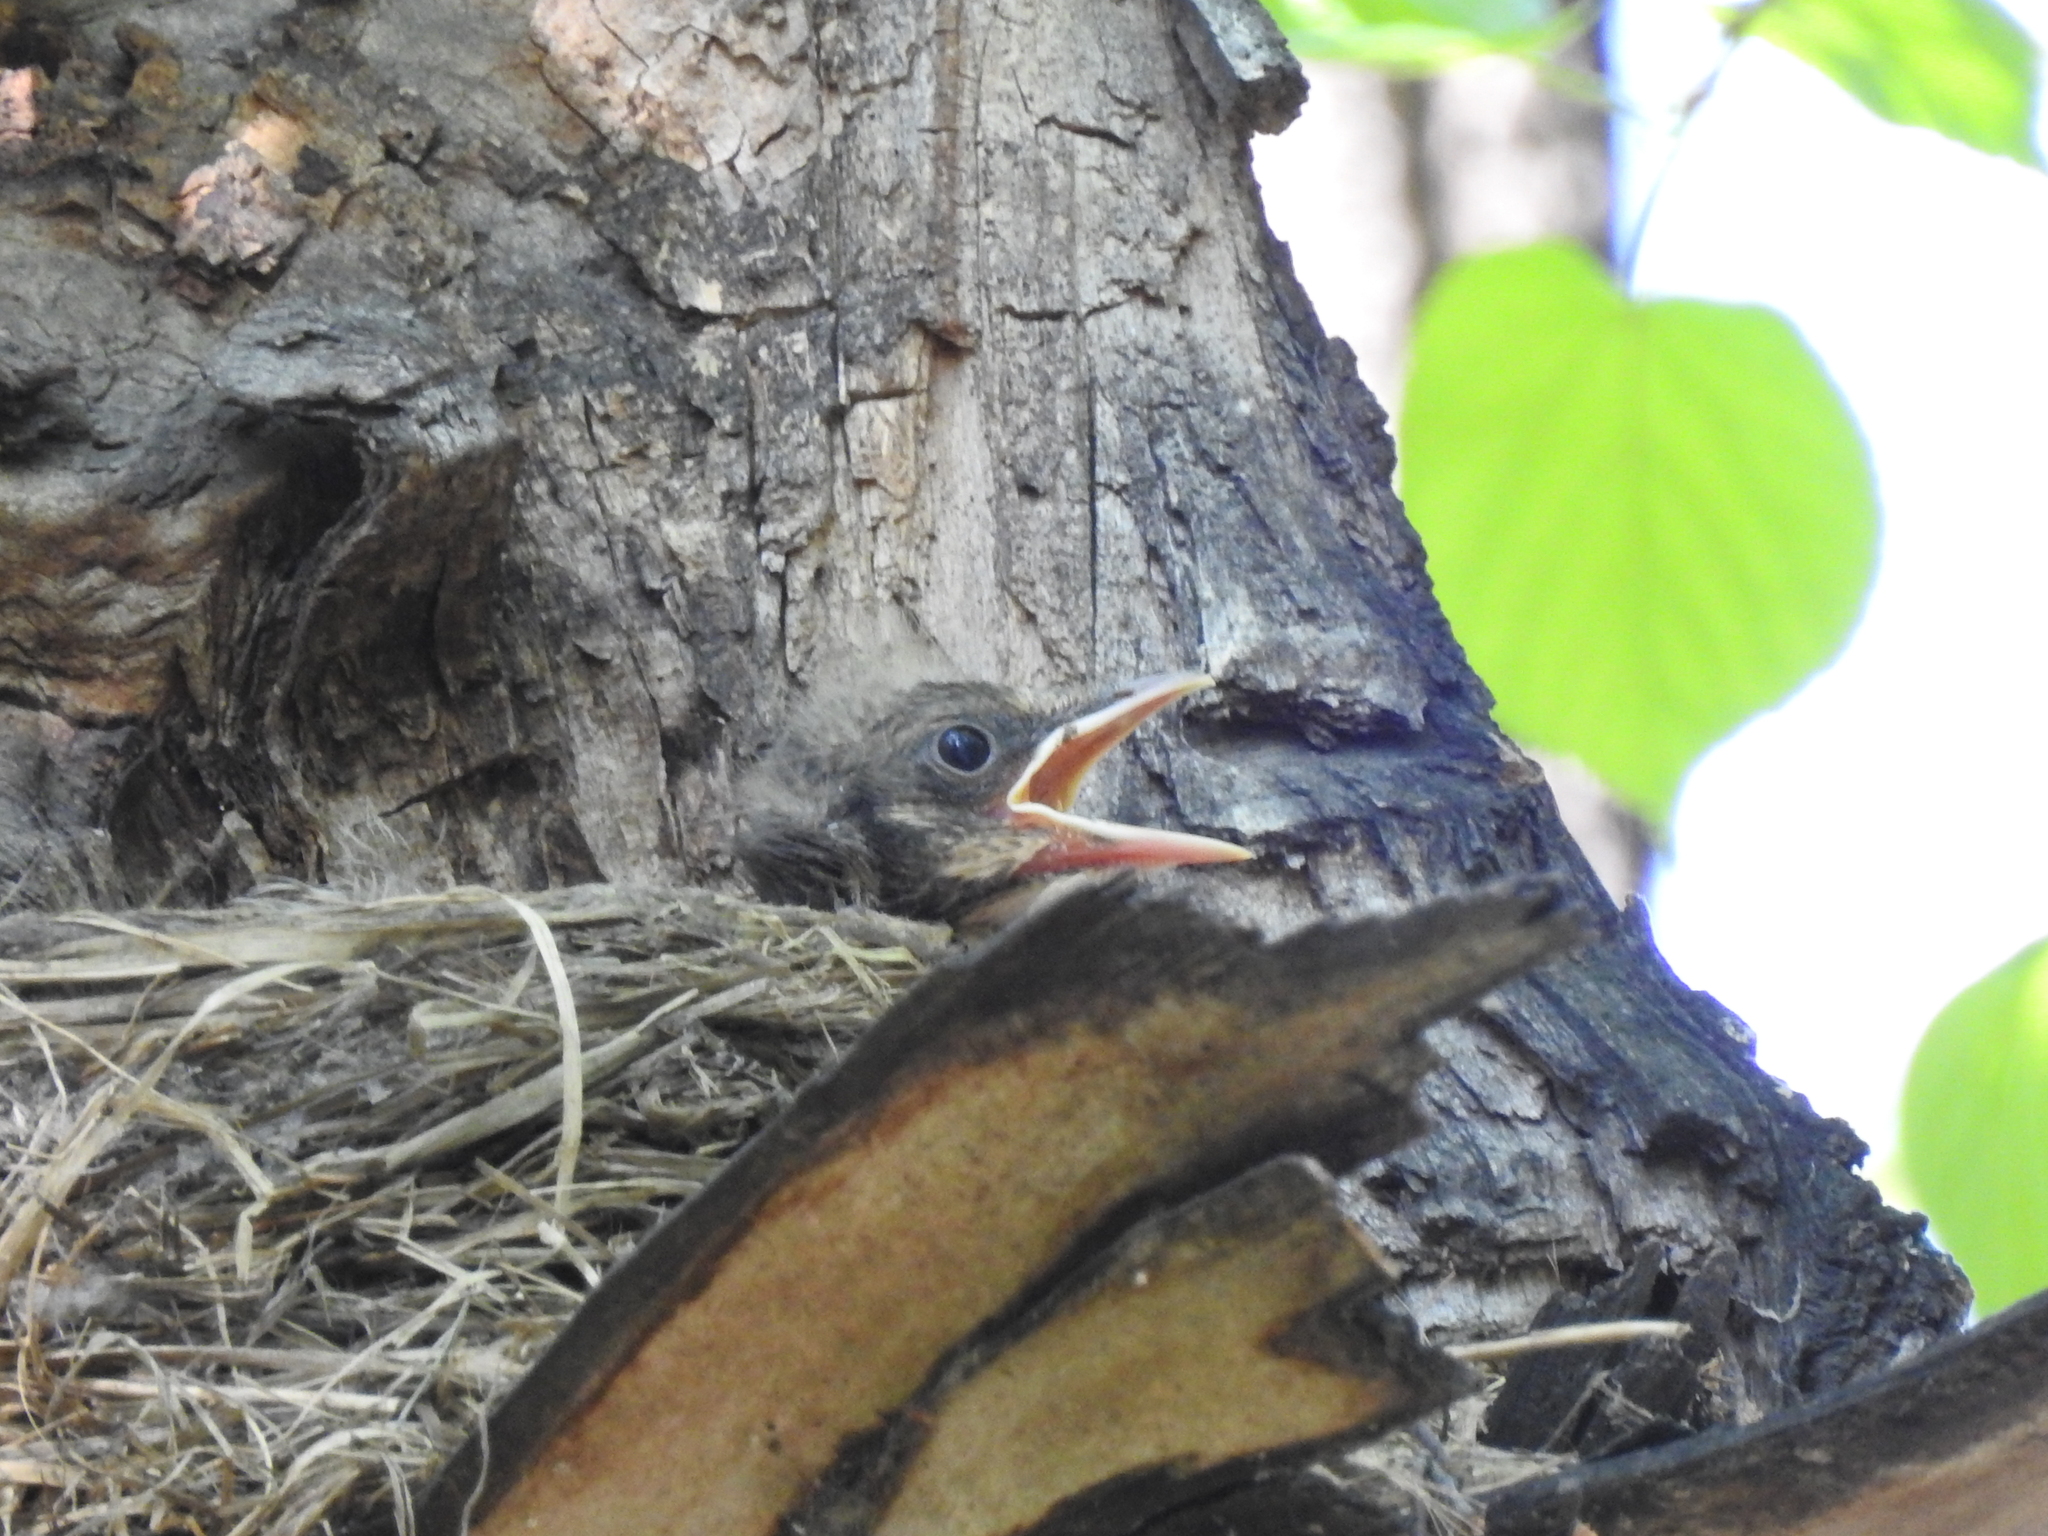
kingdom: Animalia
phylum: Chordata
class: Aves
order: Passeriformes
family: Turdidae
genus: Turdus
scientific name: Turdus pilaris
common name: Fieldfare
